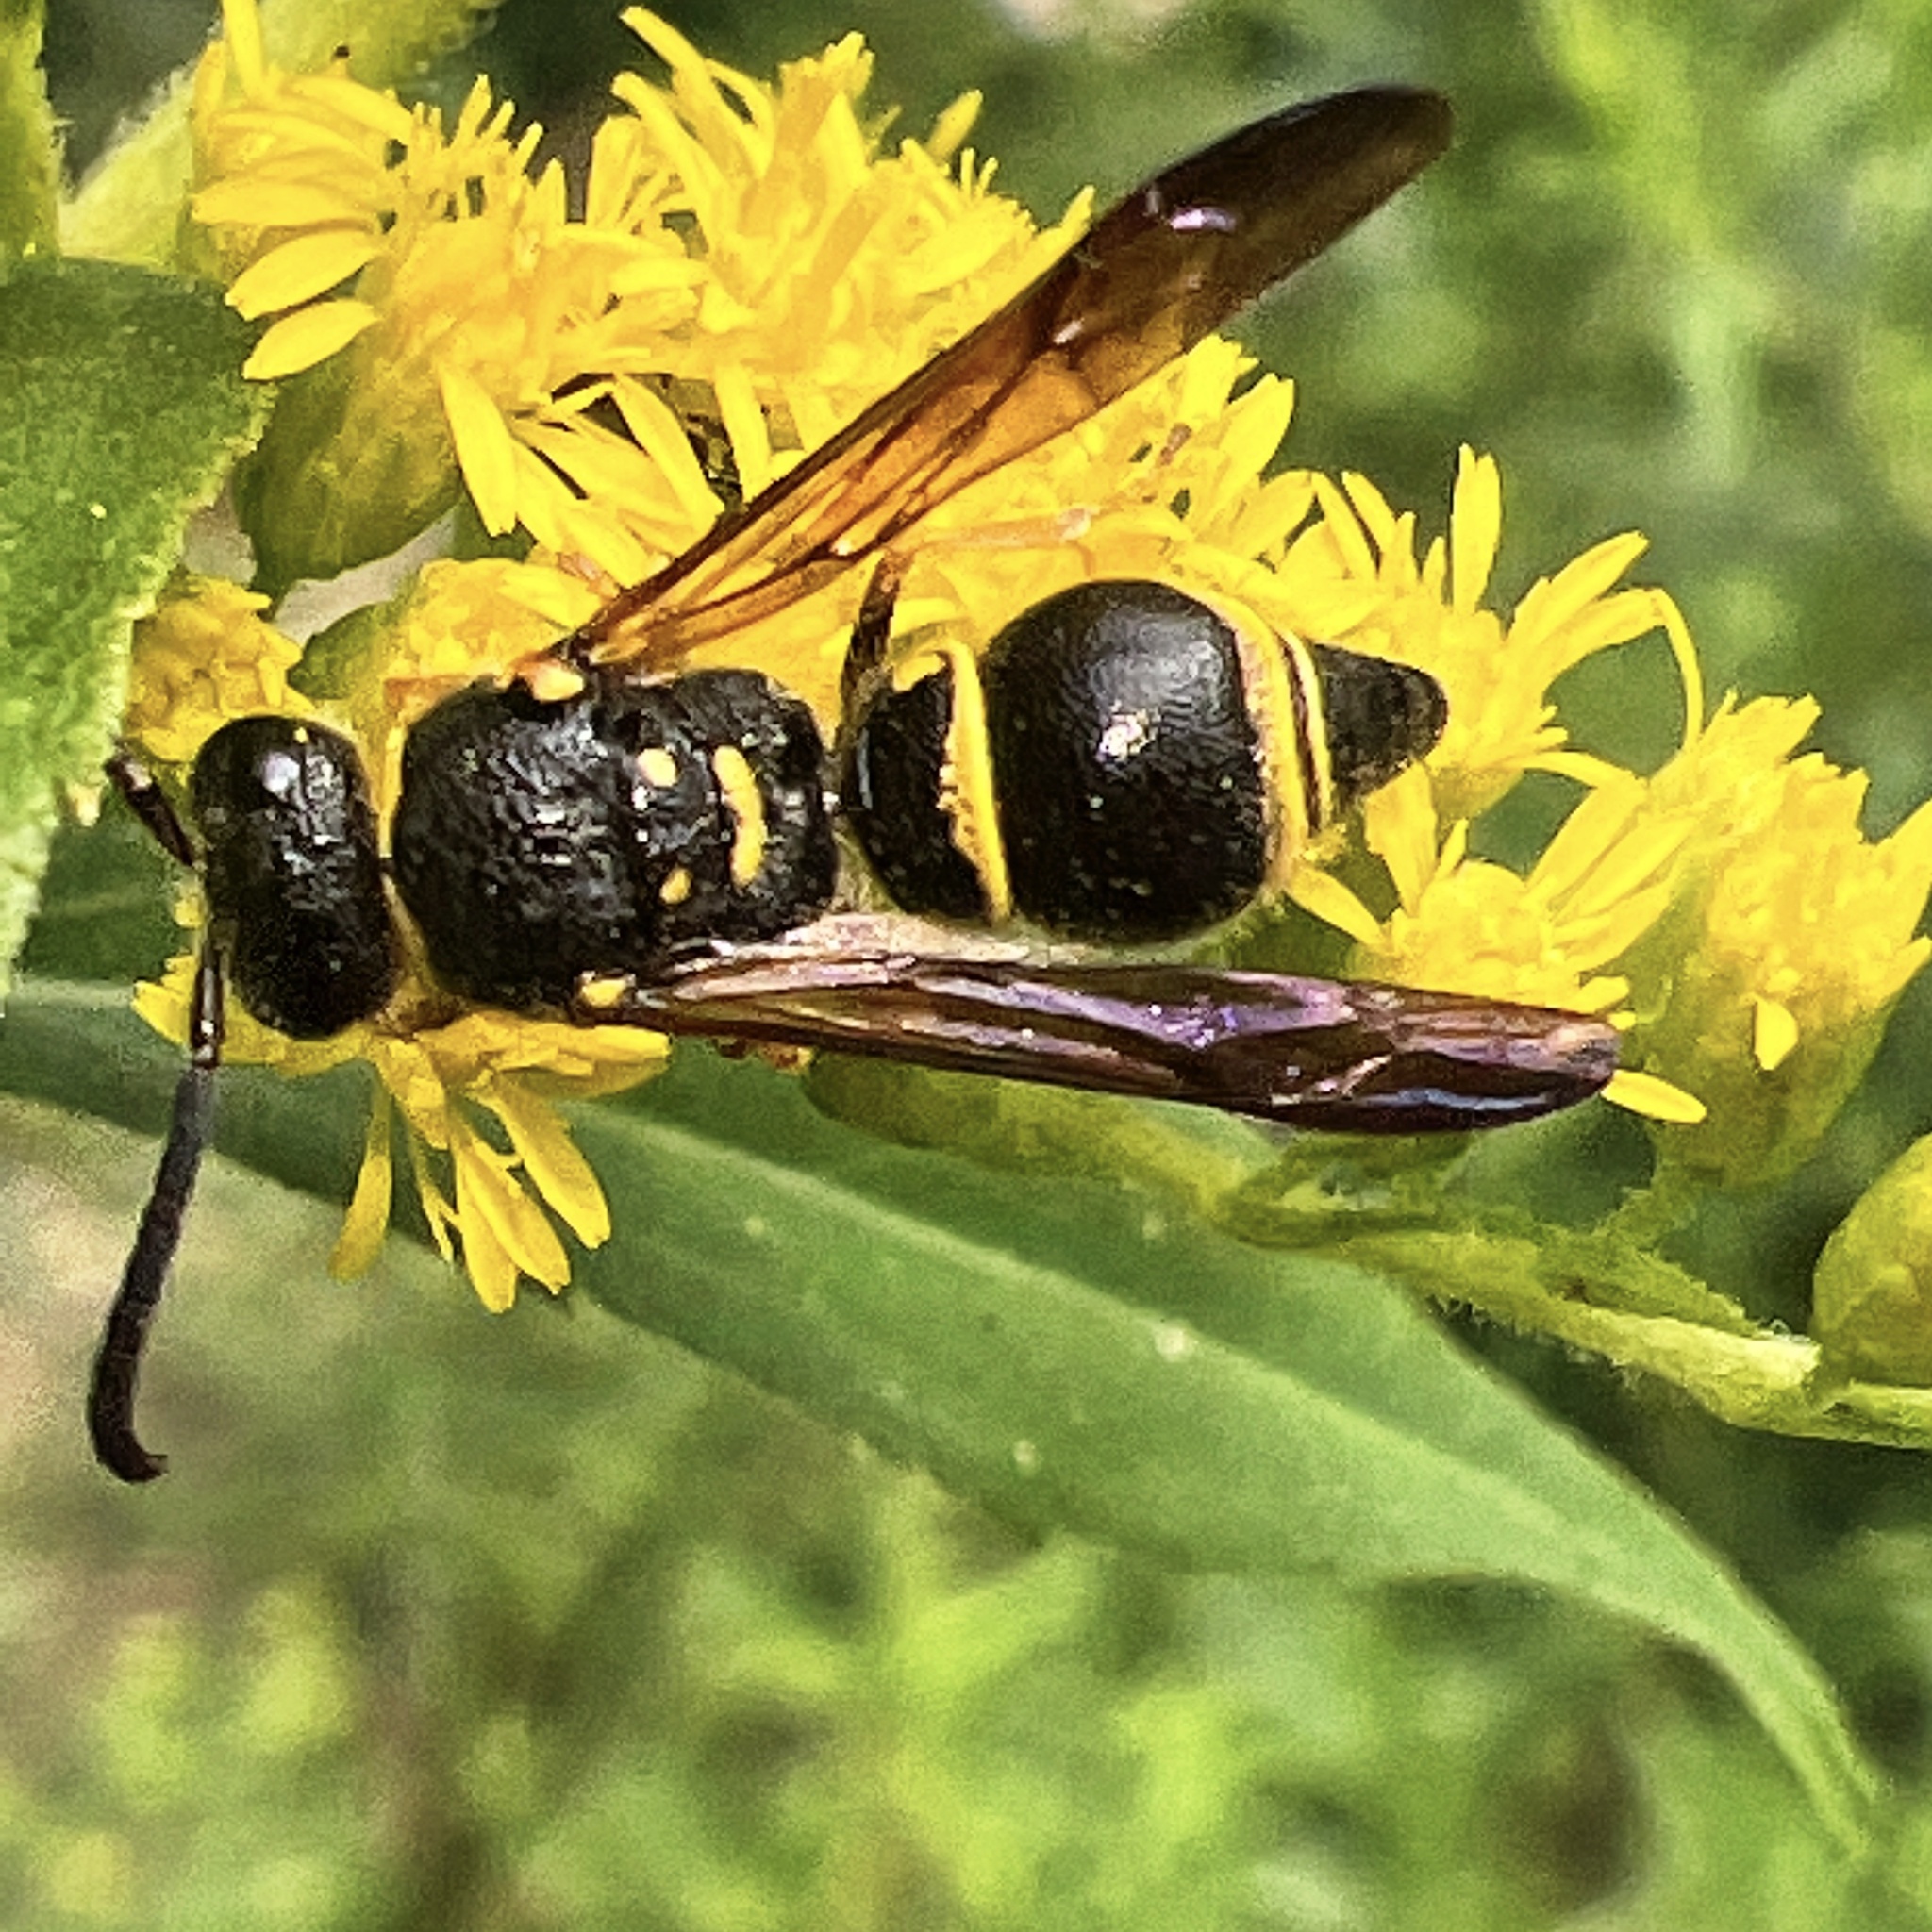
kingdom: Animalia
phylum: Arthropoda
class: Insecta
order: Hymenoptera
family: Vespidae
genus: Ancistrocerus
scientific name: Ancistrocerus campestris
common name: Smiling mason wasp
